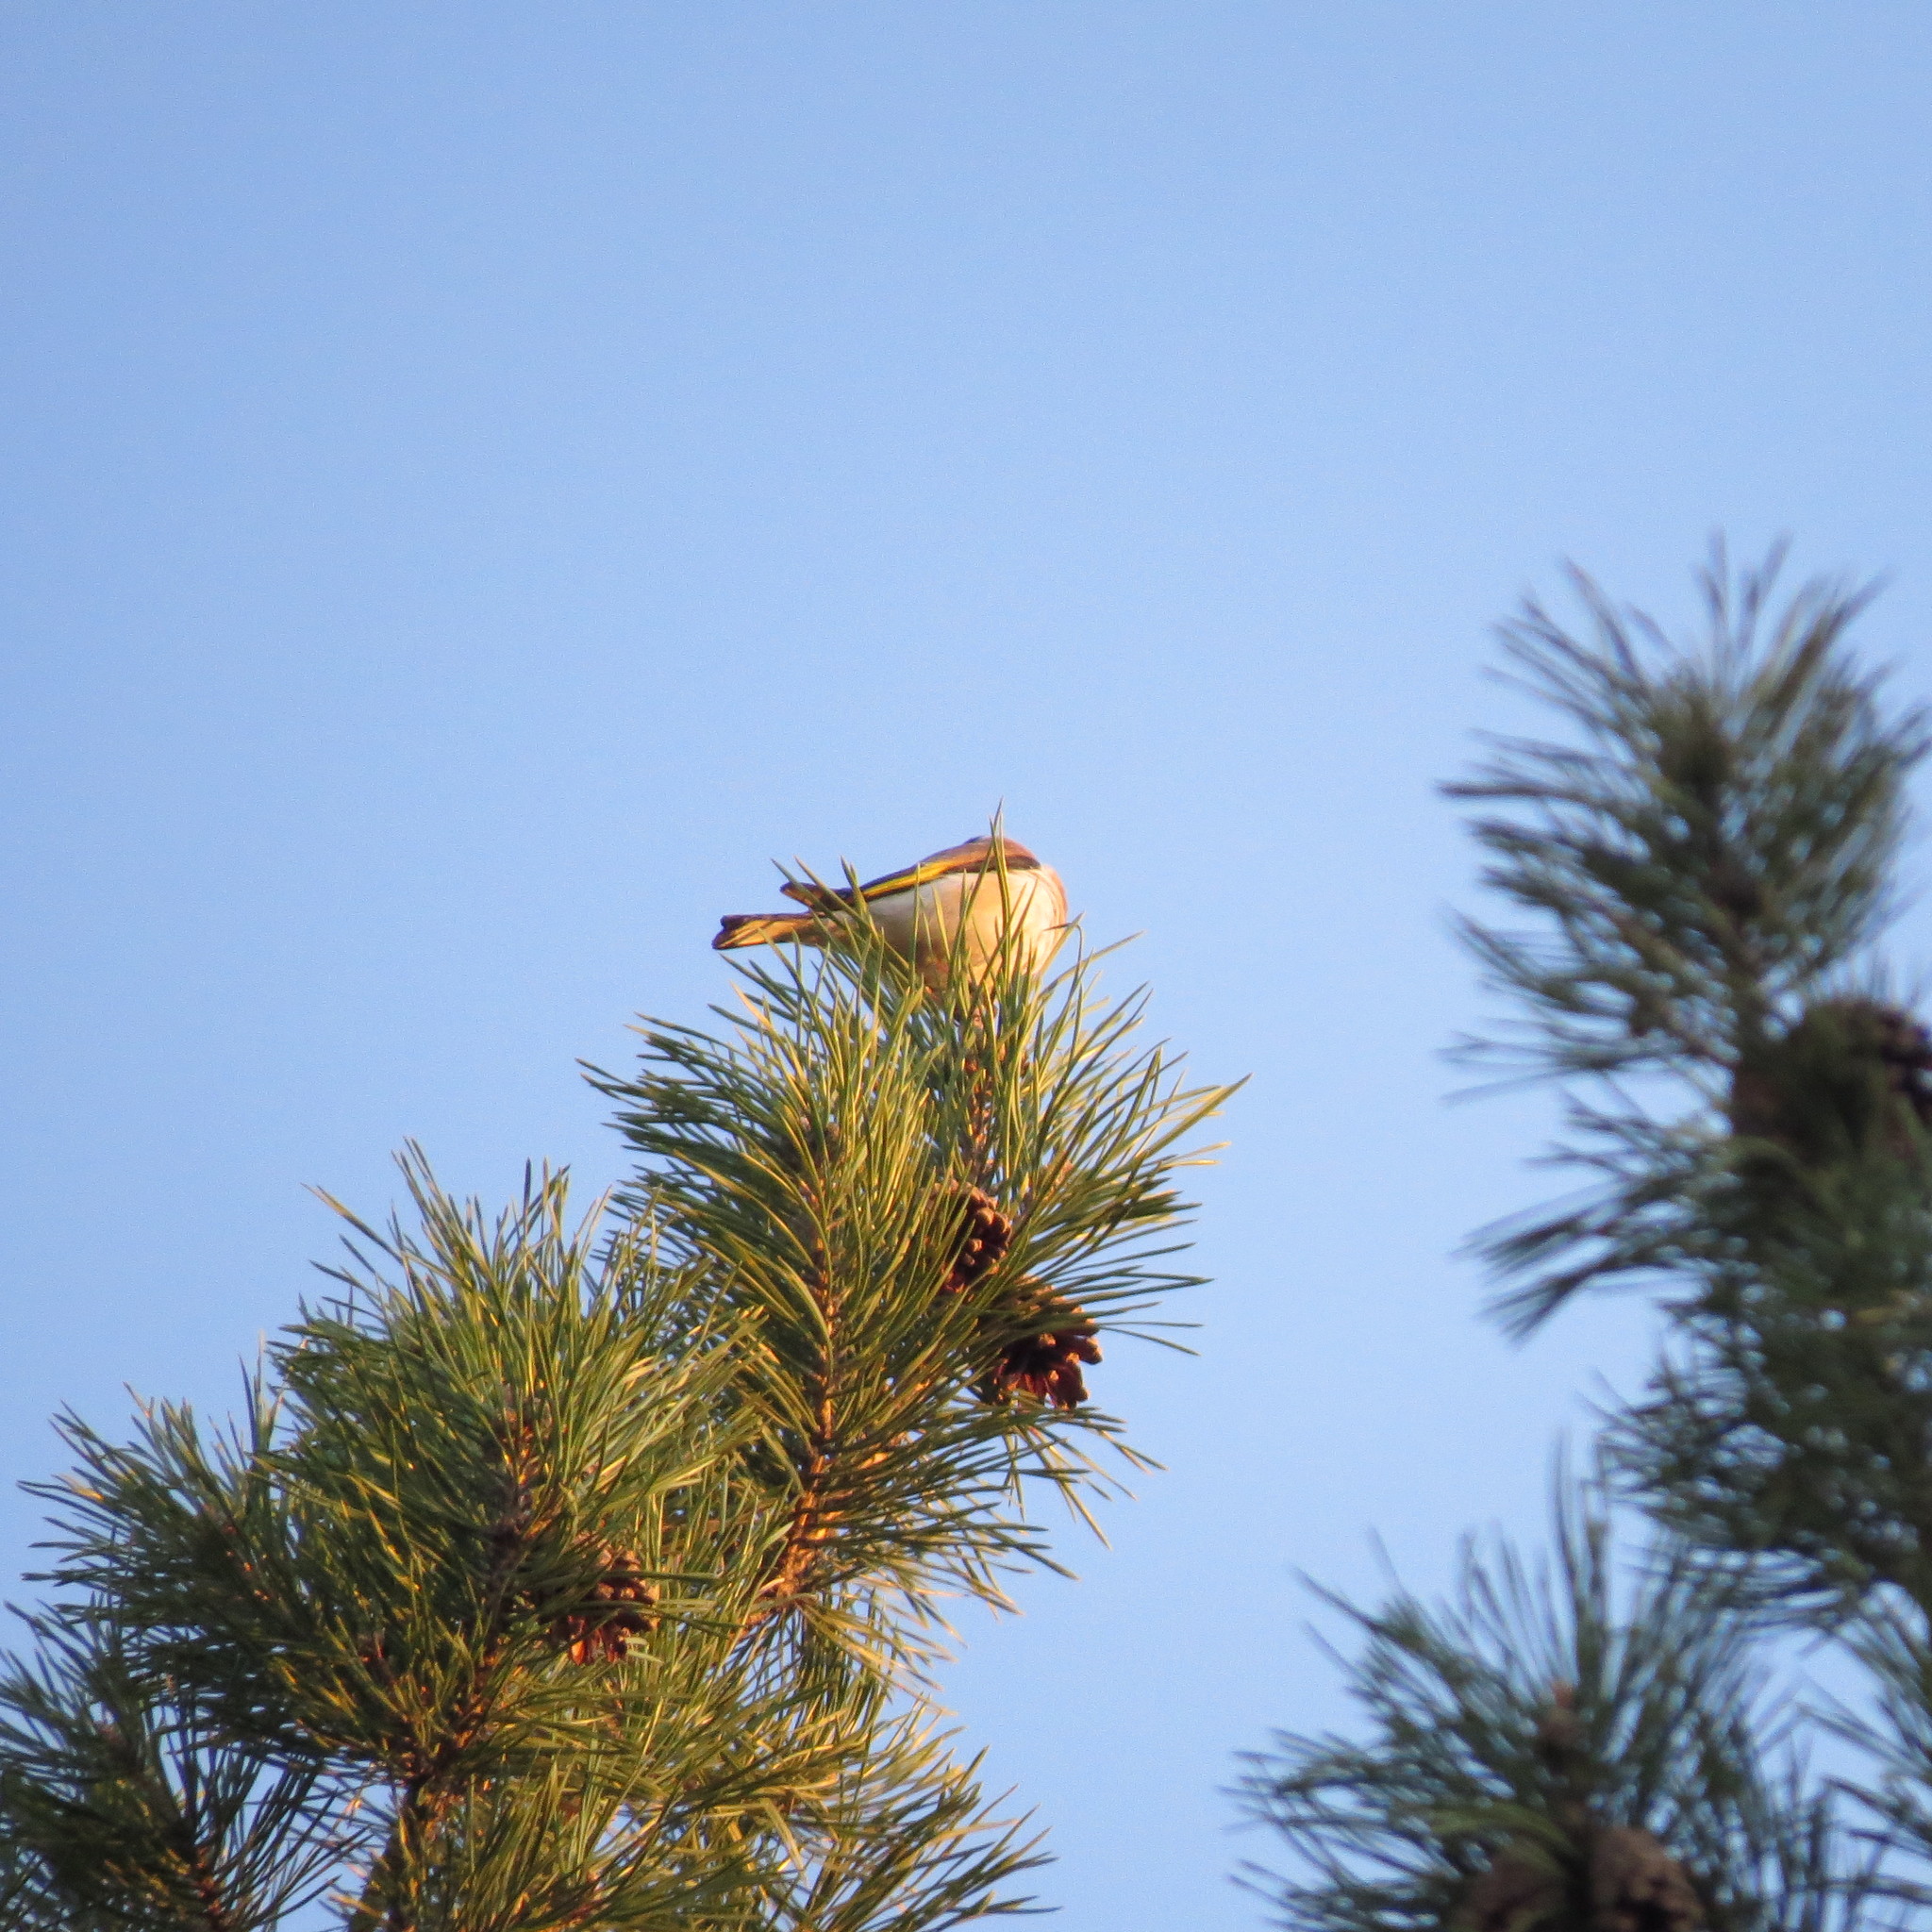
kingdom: Animalia
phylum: Chordata
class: Aves
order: Passeriformes
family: Fringillidae
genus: Carduelis
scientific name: Carduelis carduelis
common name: European goldfinch
